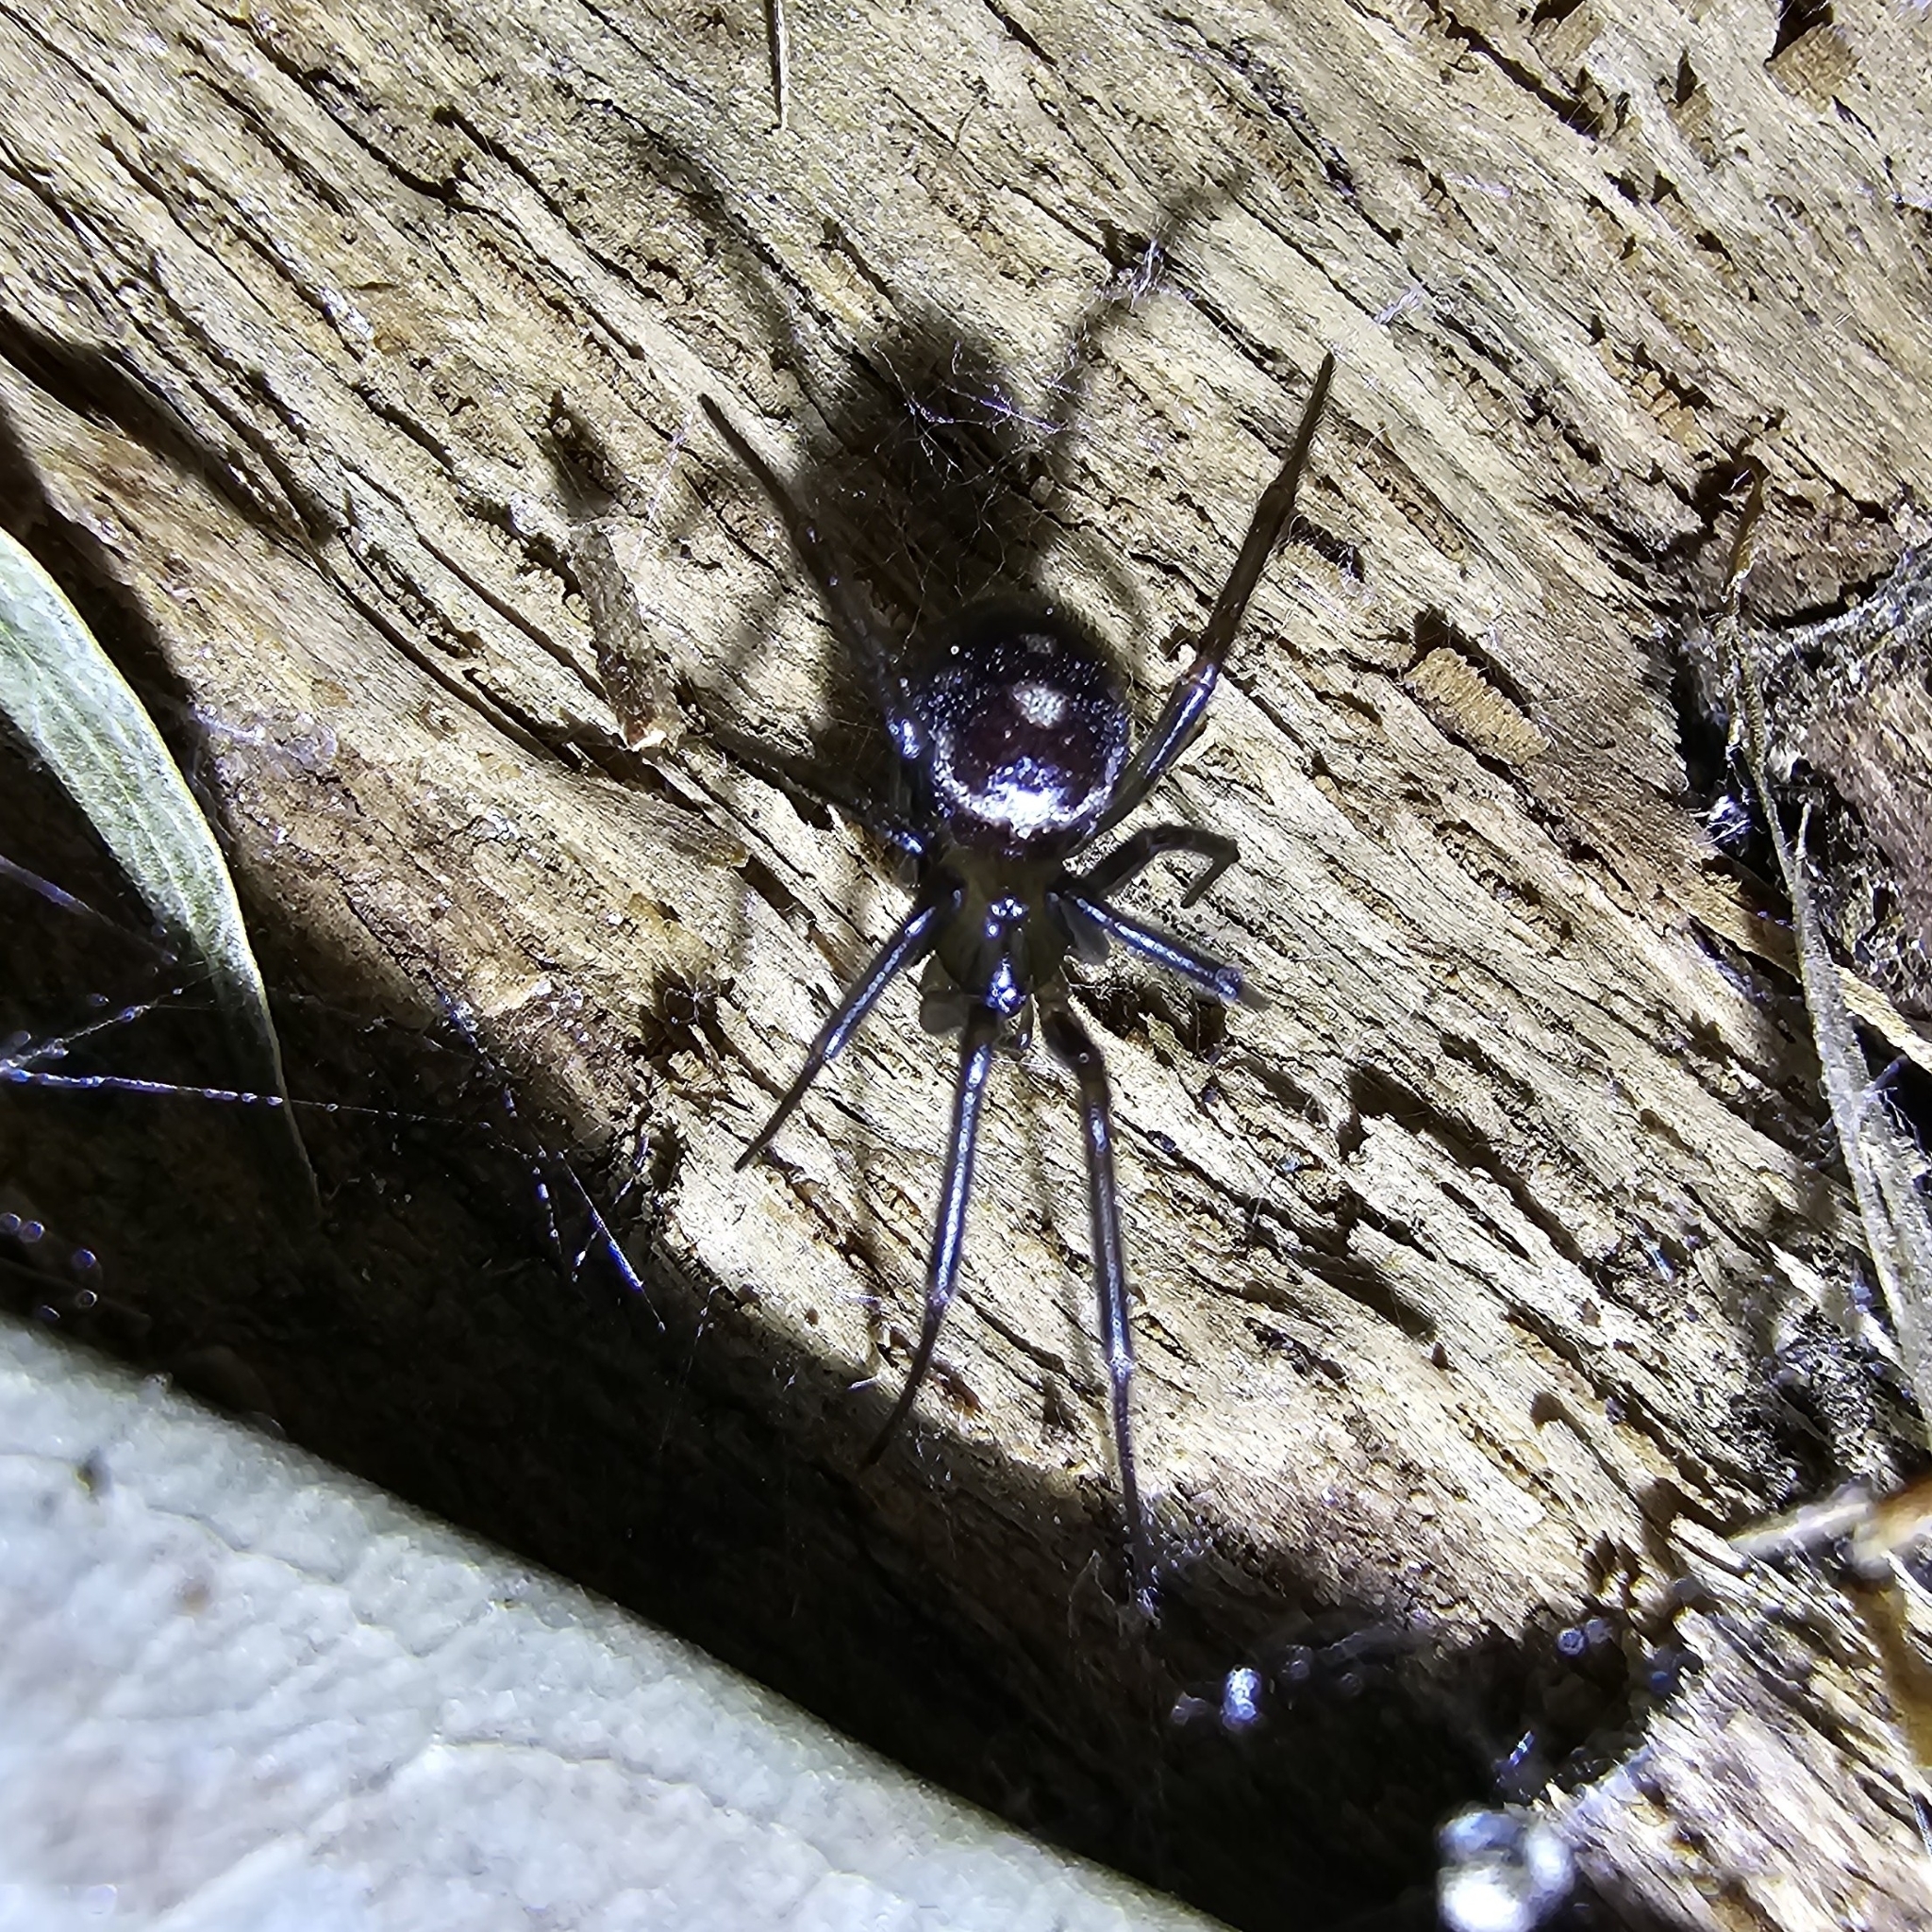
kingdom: Animalia
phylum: Arthropoda
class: Arachnida
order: Araneae
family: Theridiidae
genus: Steatoda
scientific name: Steatoda grossa
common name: False black widow
